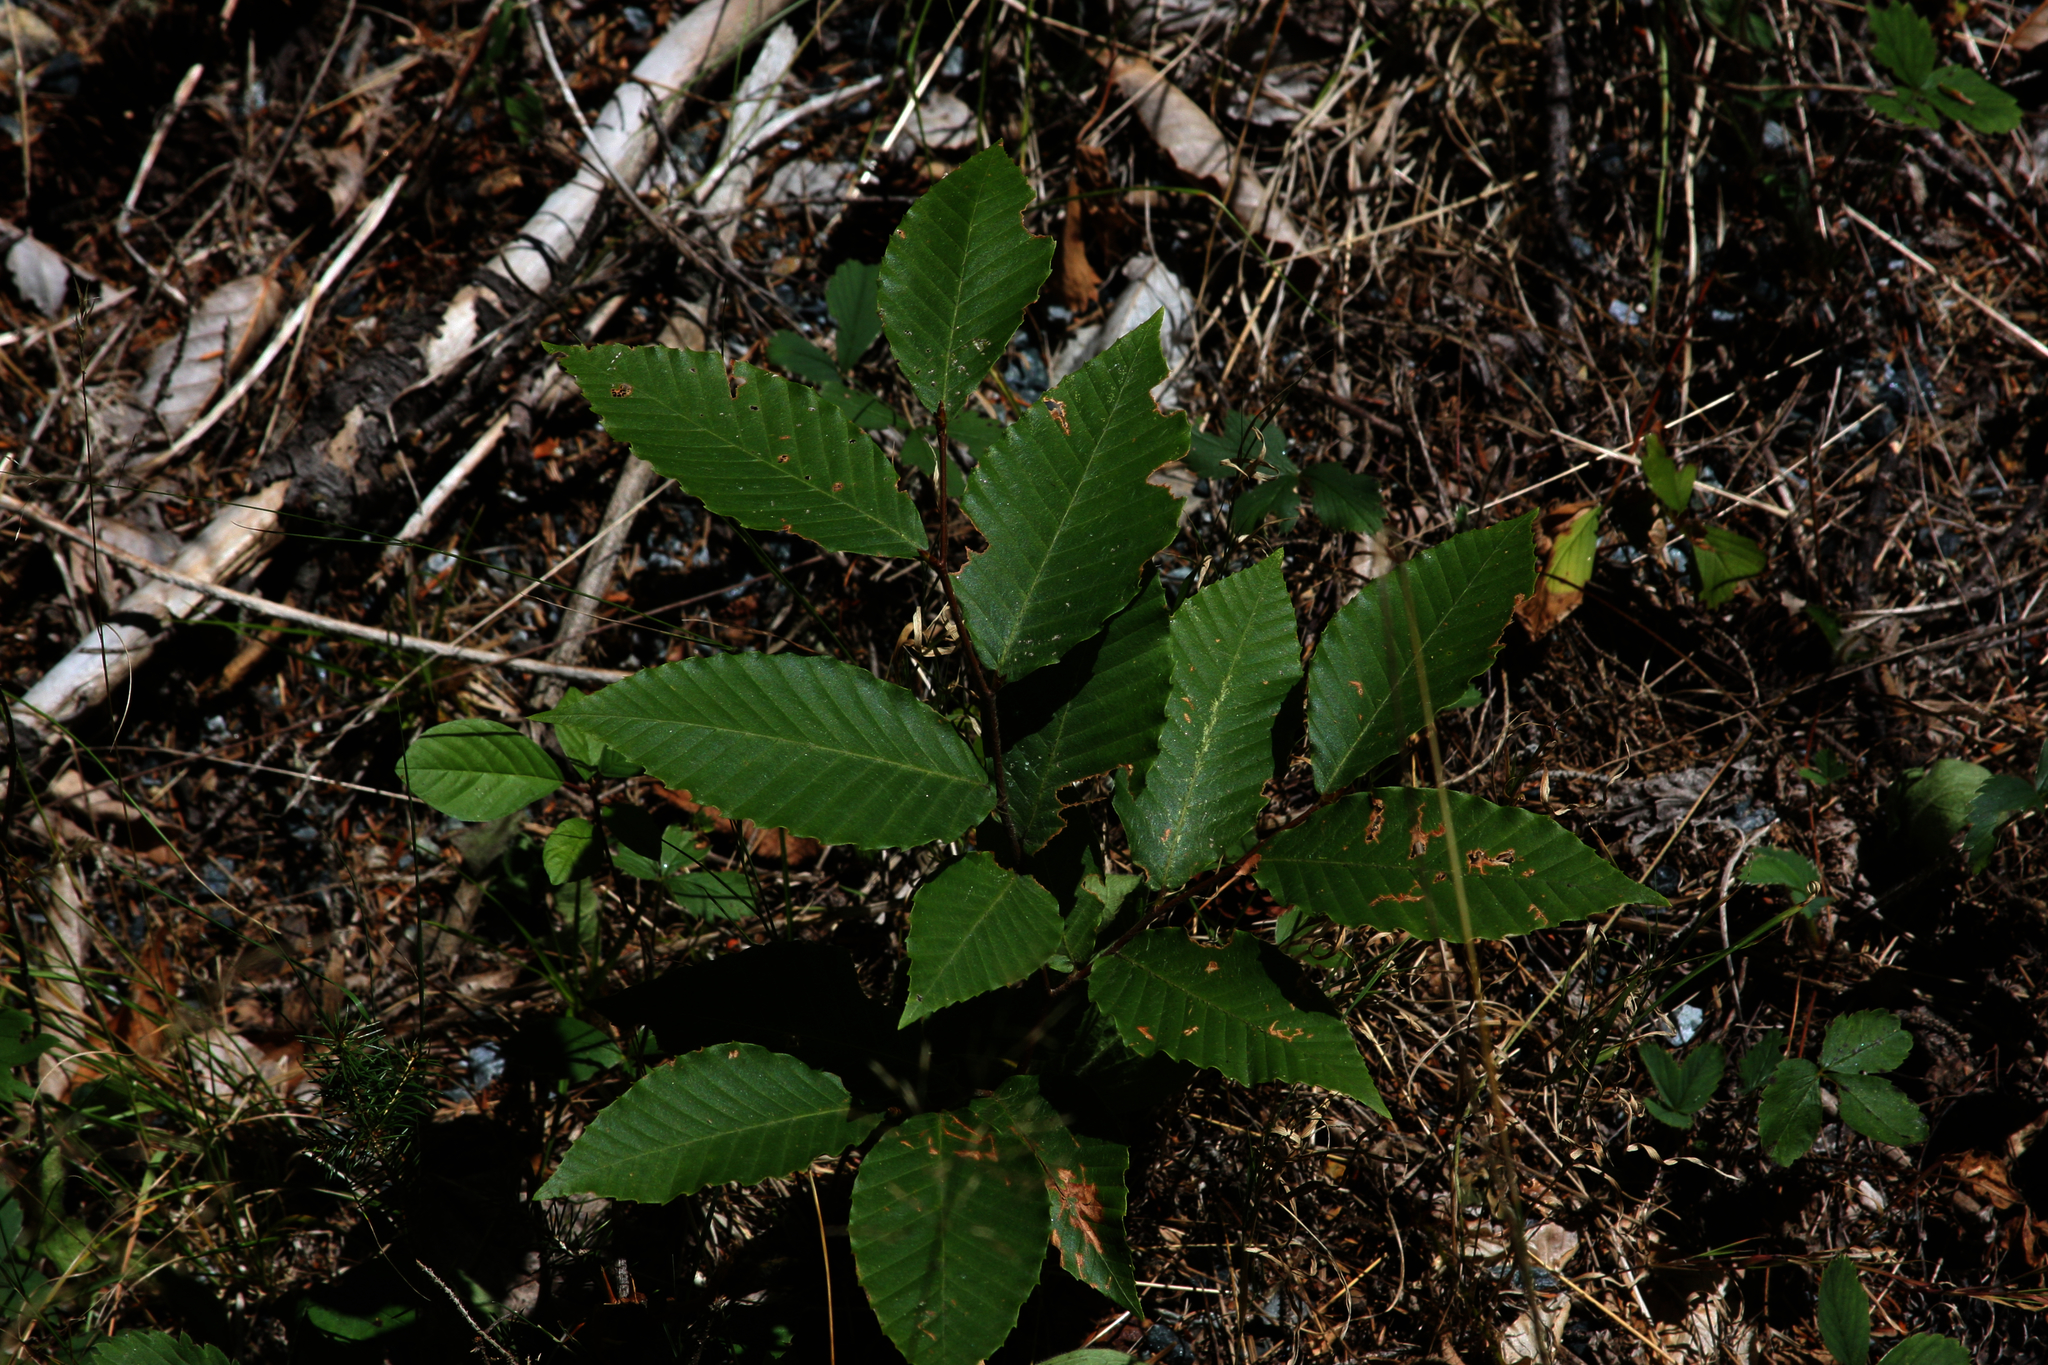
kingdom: Plantae
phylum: Tracheophyta
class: Magnoliopsida
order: Fagales
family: Fagaceae
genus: Fagus
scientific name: Fagus grandifolia
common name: American beech
